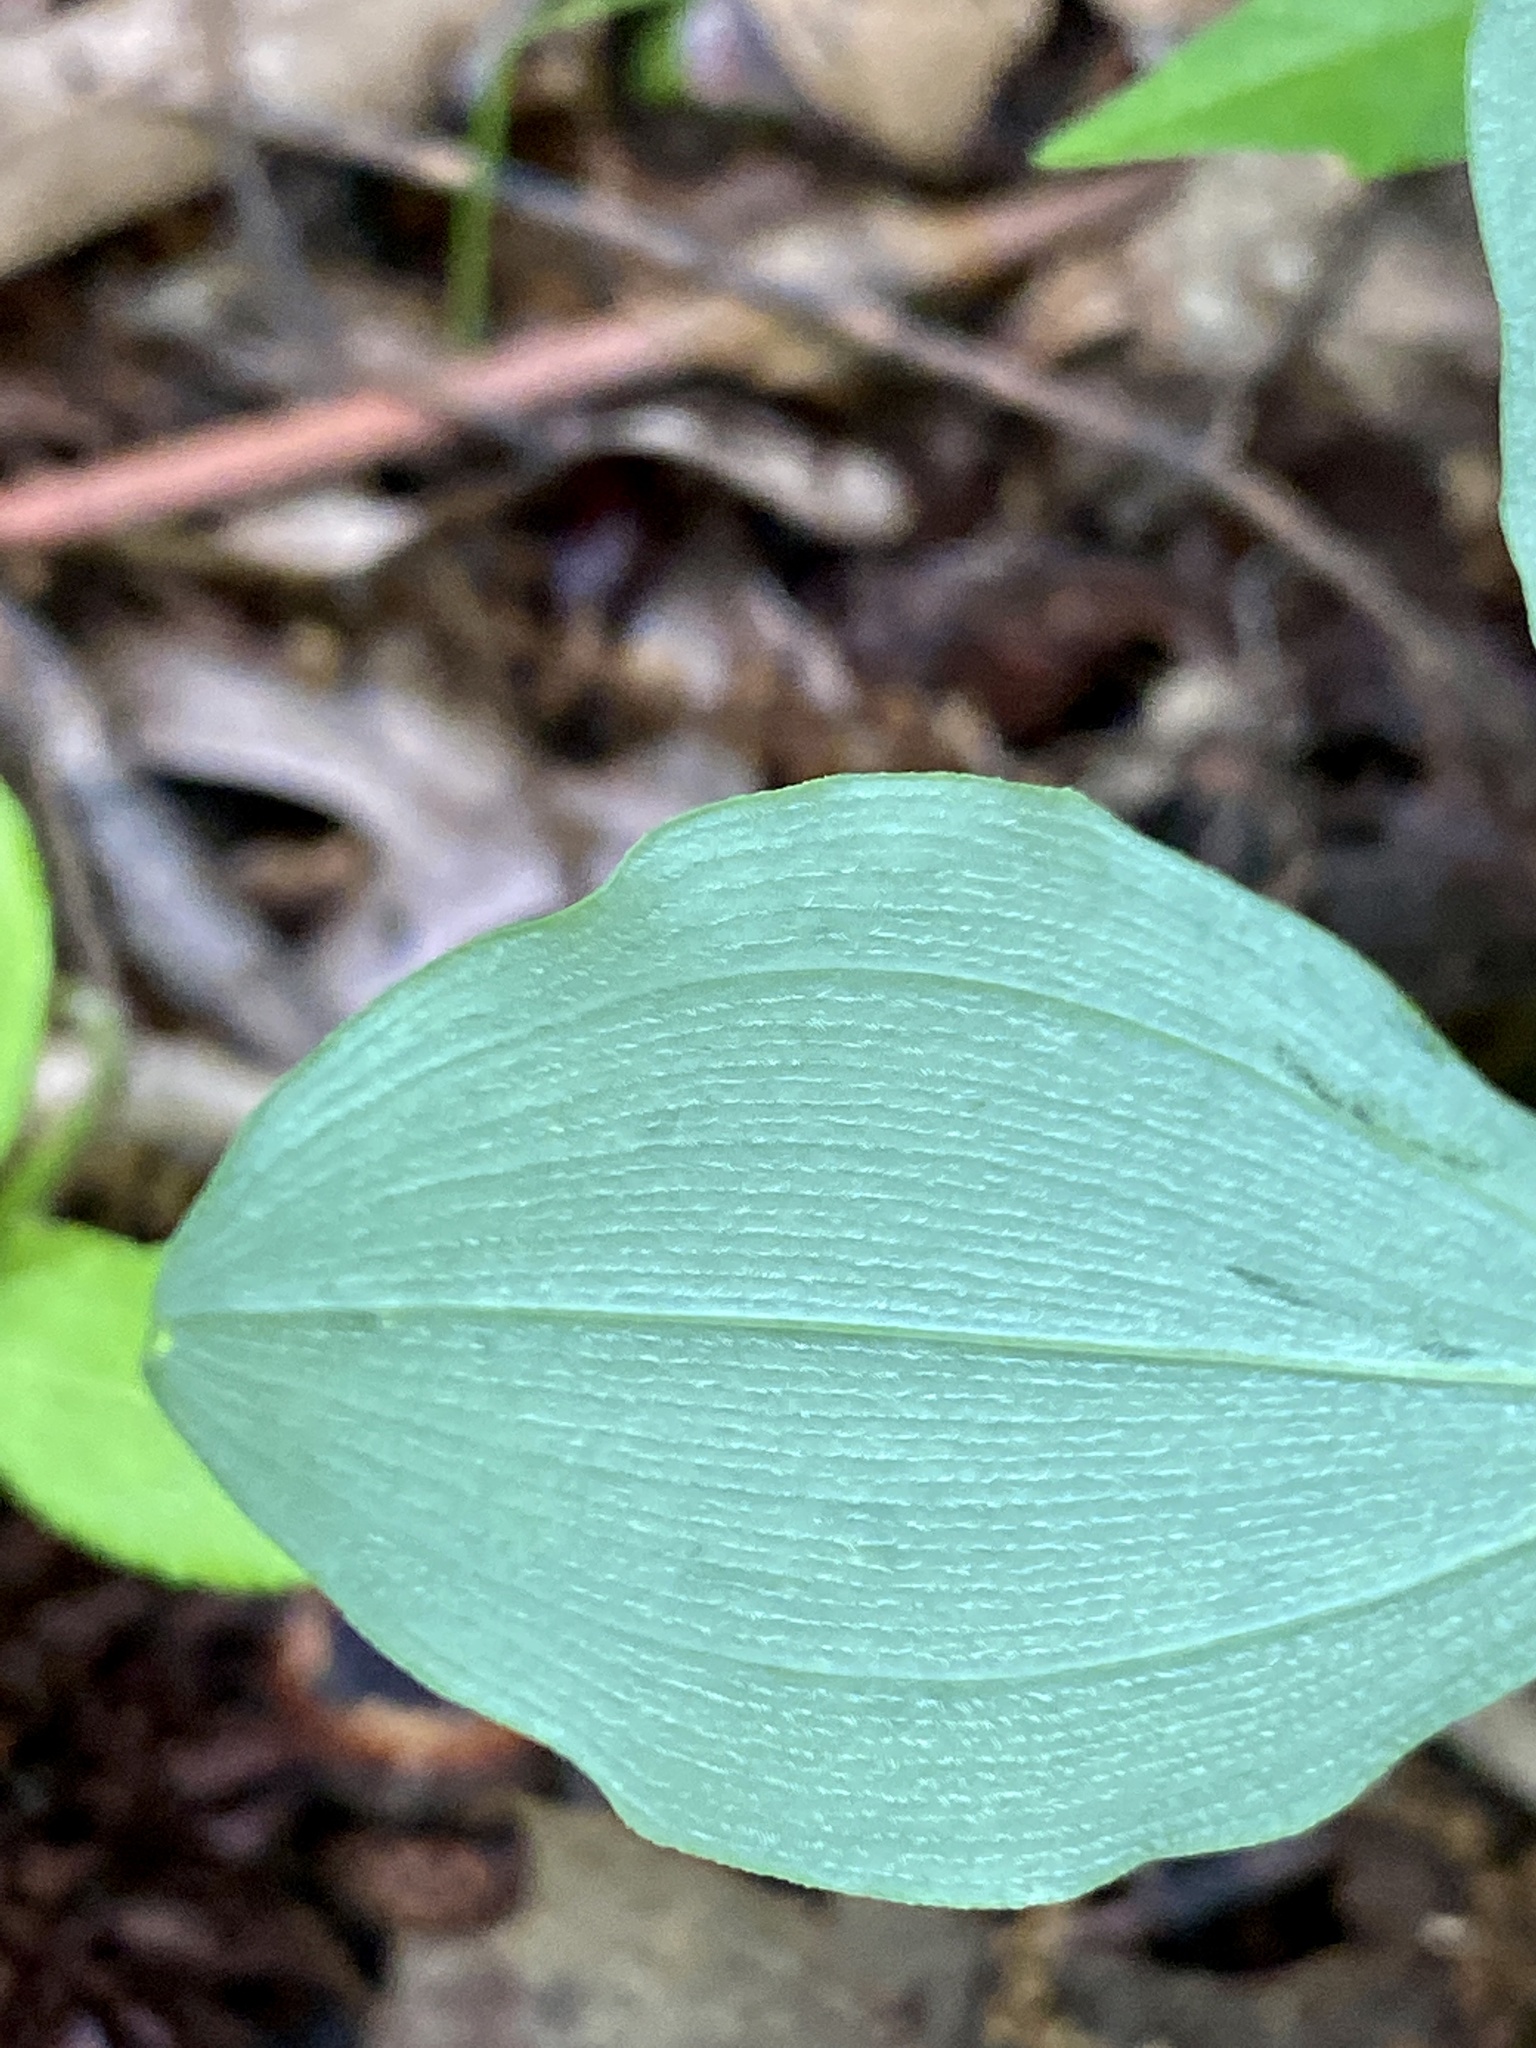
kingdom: Plantae
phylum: Tracheophyta
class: Liliopsida
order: Asparagales
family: Asparagaceae
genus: Polygonatum
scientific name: Polygonatum pubescens
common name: Downy solomon's seal
